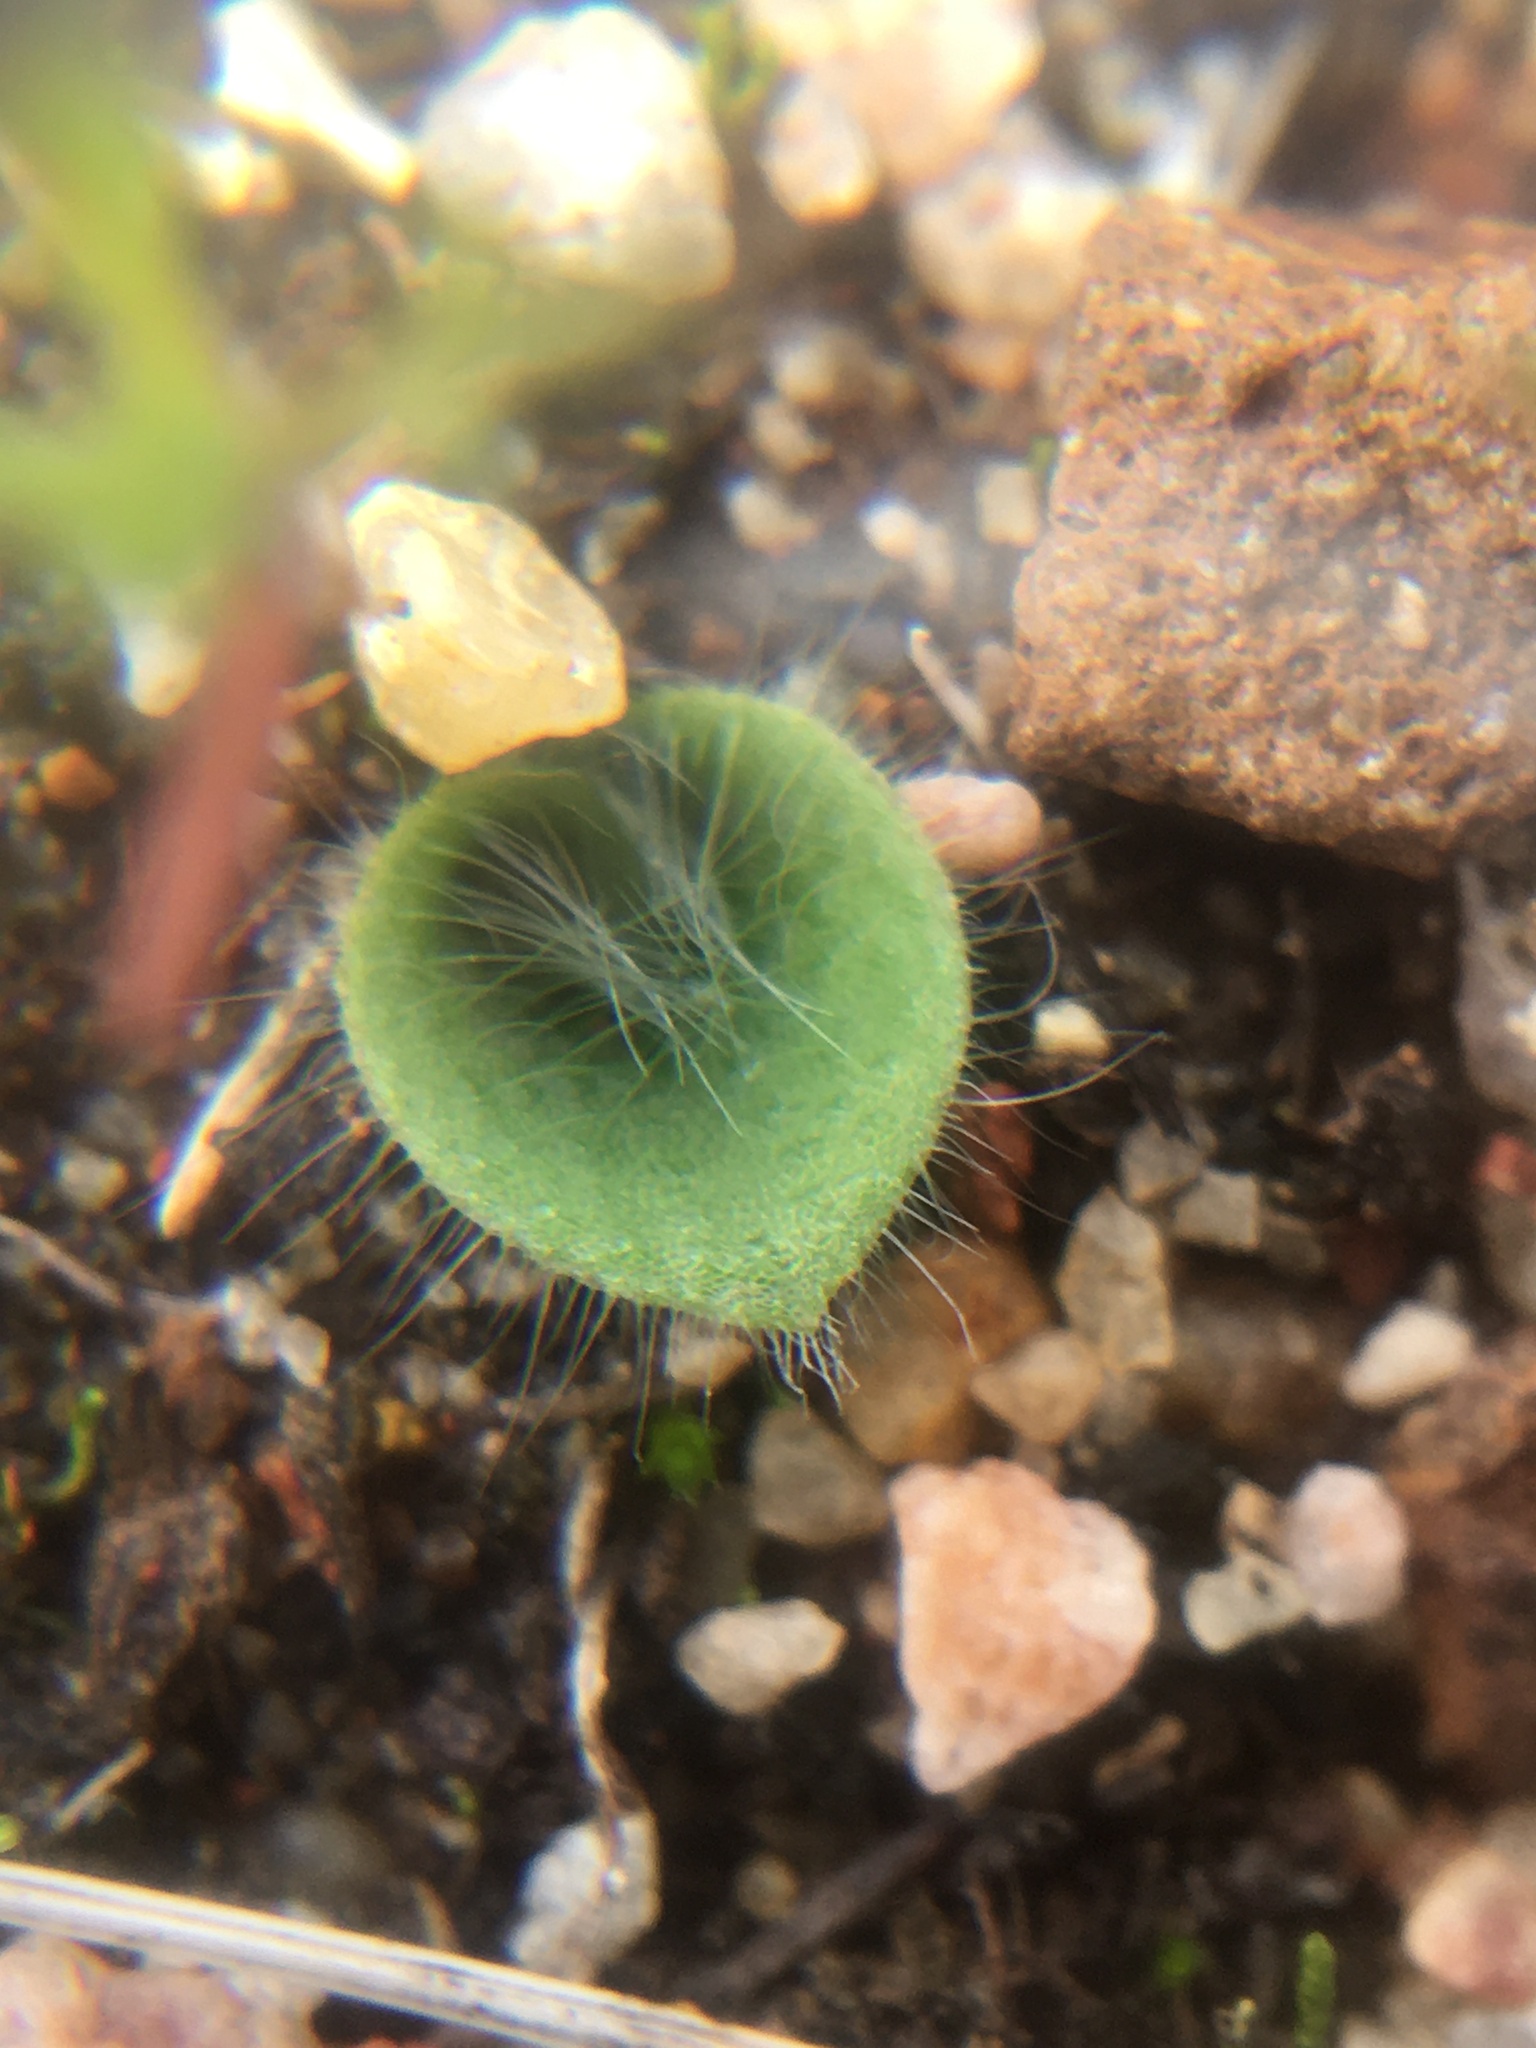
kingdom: Plantae
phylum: Tracheophyta
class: Liliopsida
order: Asparagales
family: Orchidaceae
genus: Holothrix
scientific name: Holothrix villosa
